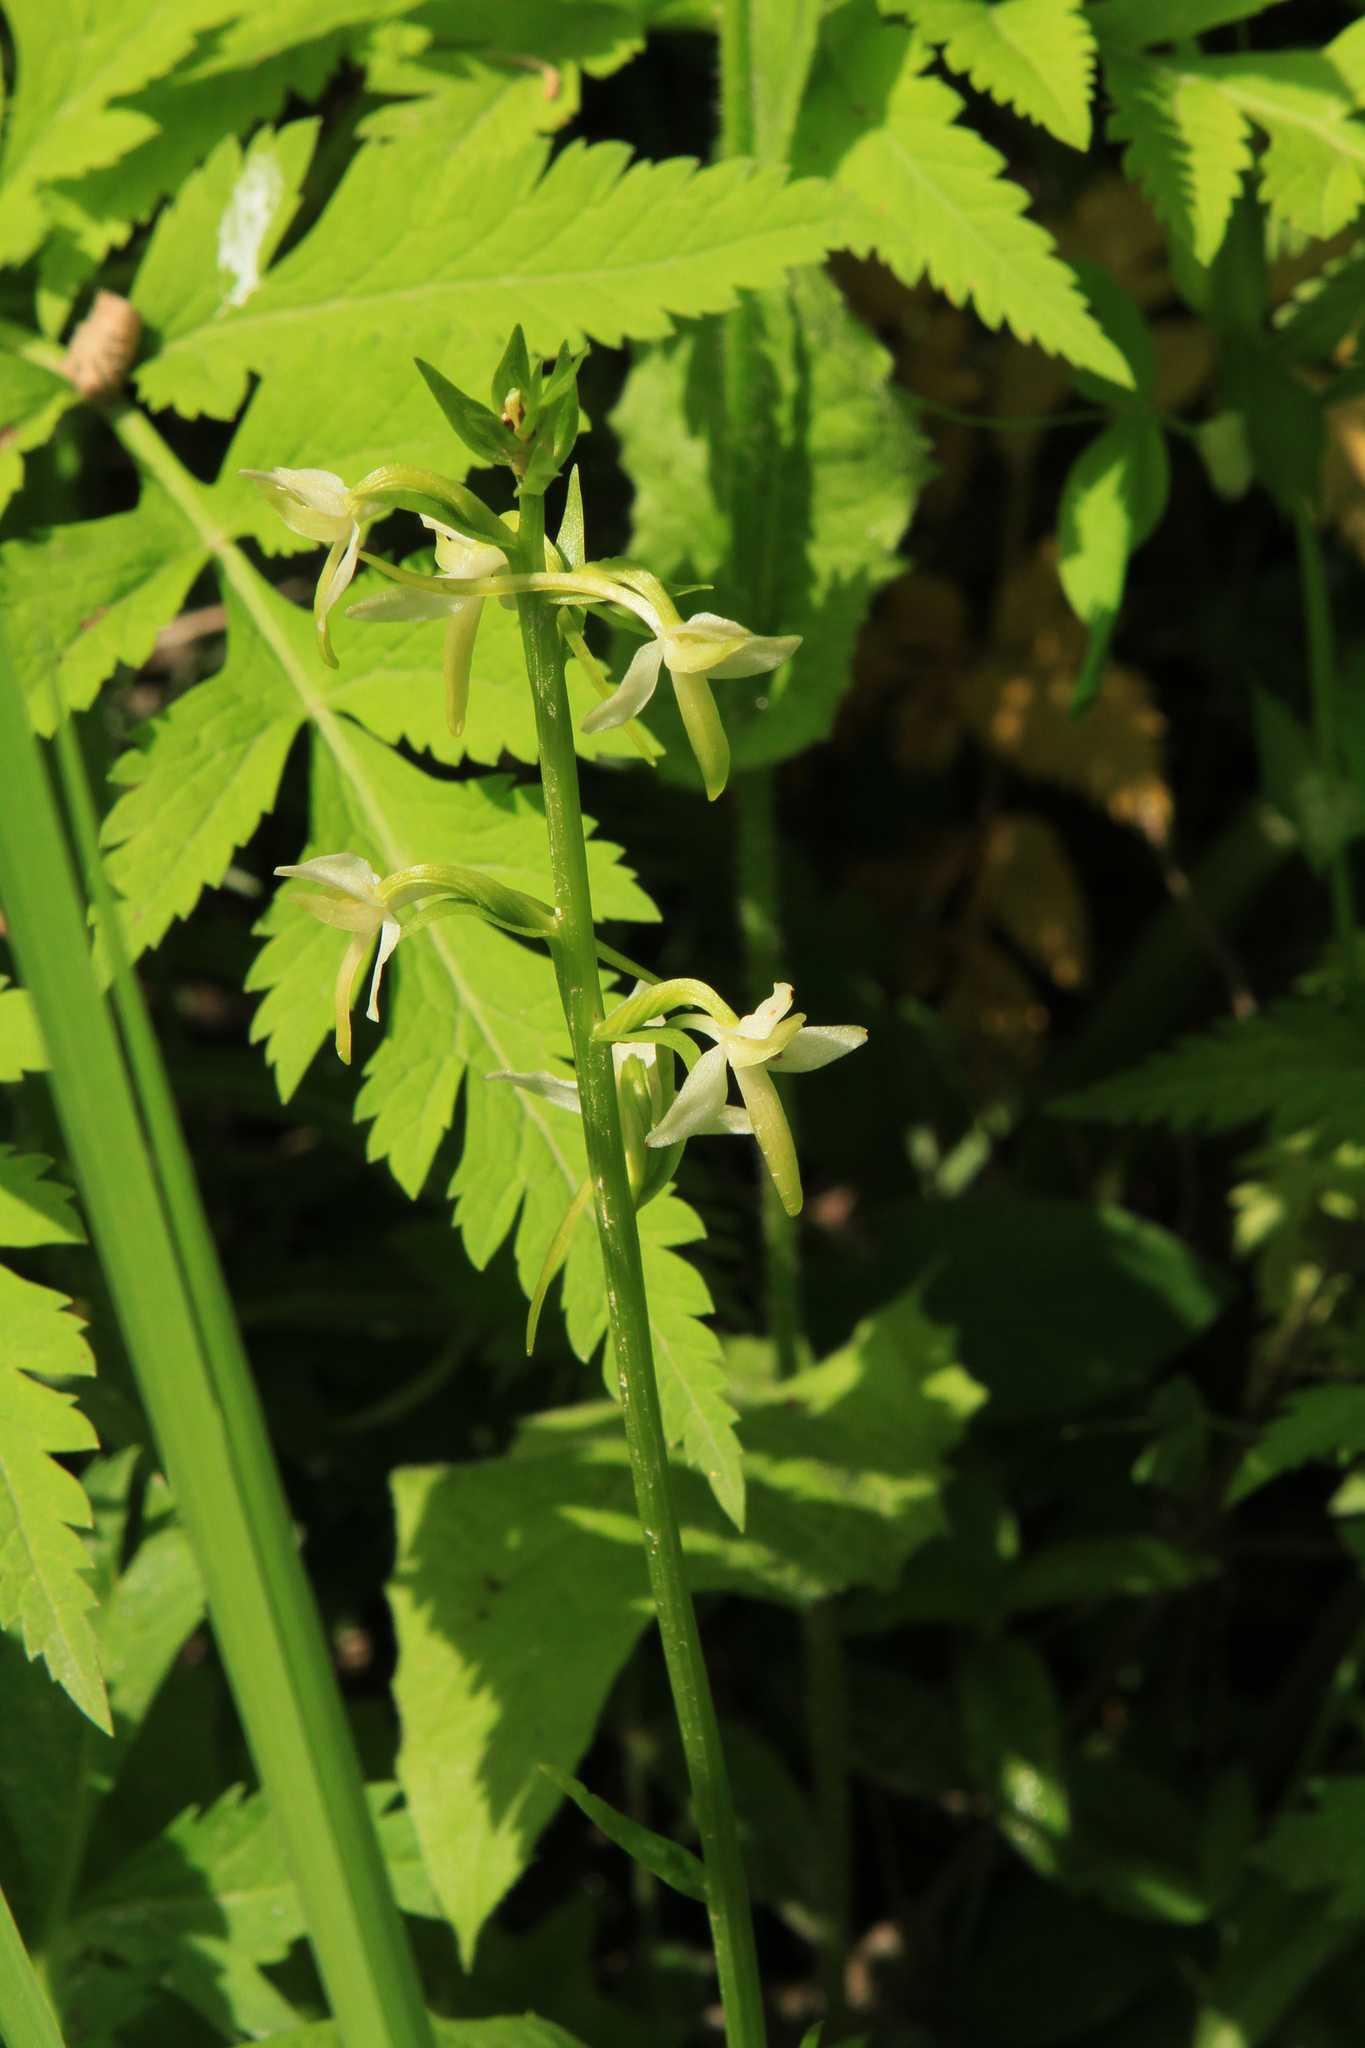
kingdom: Plantae
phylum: Tracheophyta
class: Liliopsida
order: Asparagales
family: Orchidaceae
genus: Platanthera
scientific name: Platanthera bifolia
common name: Lesser butterfly-orchid
